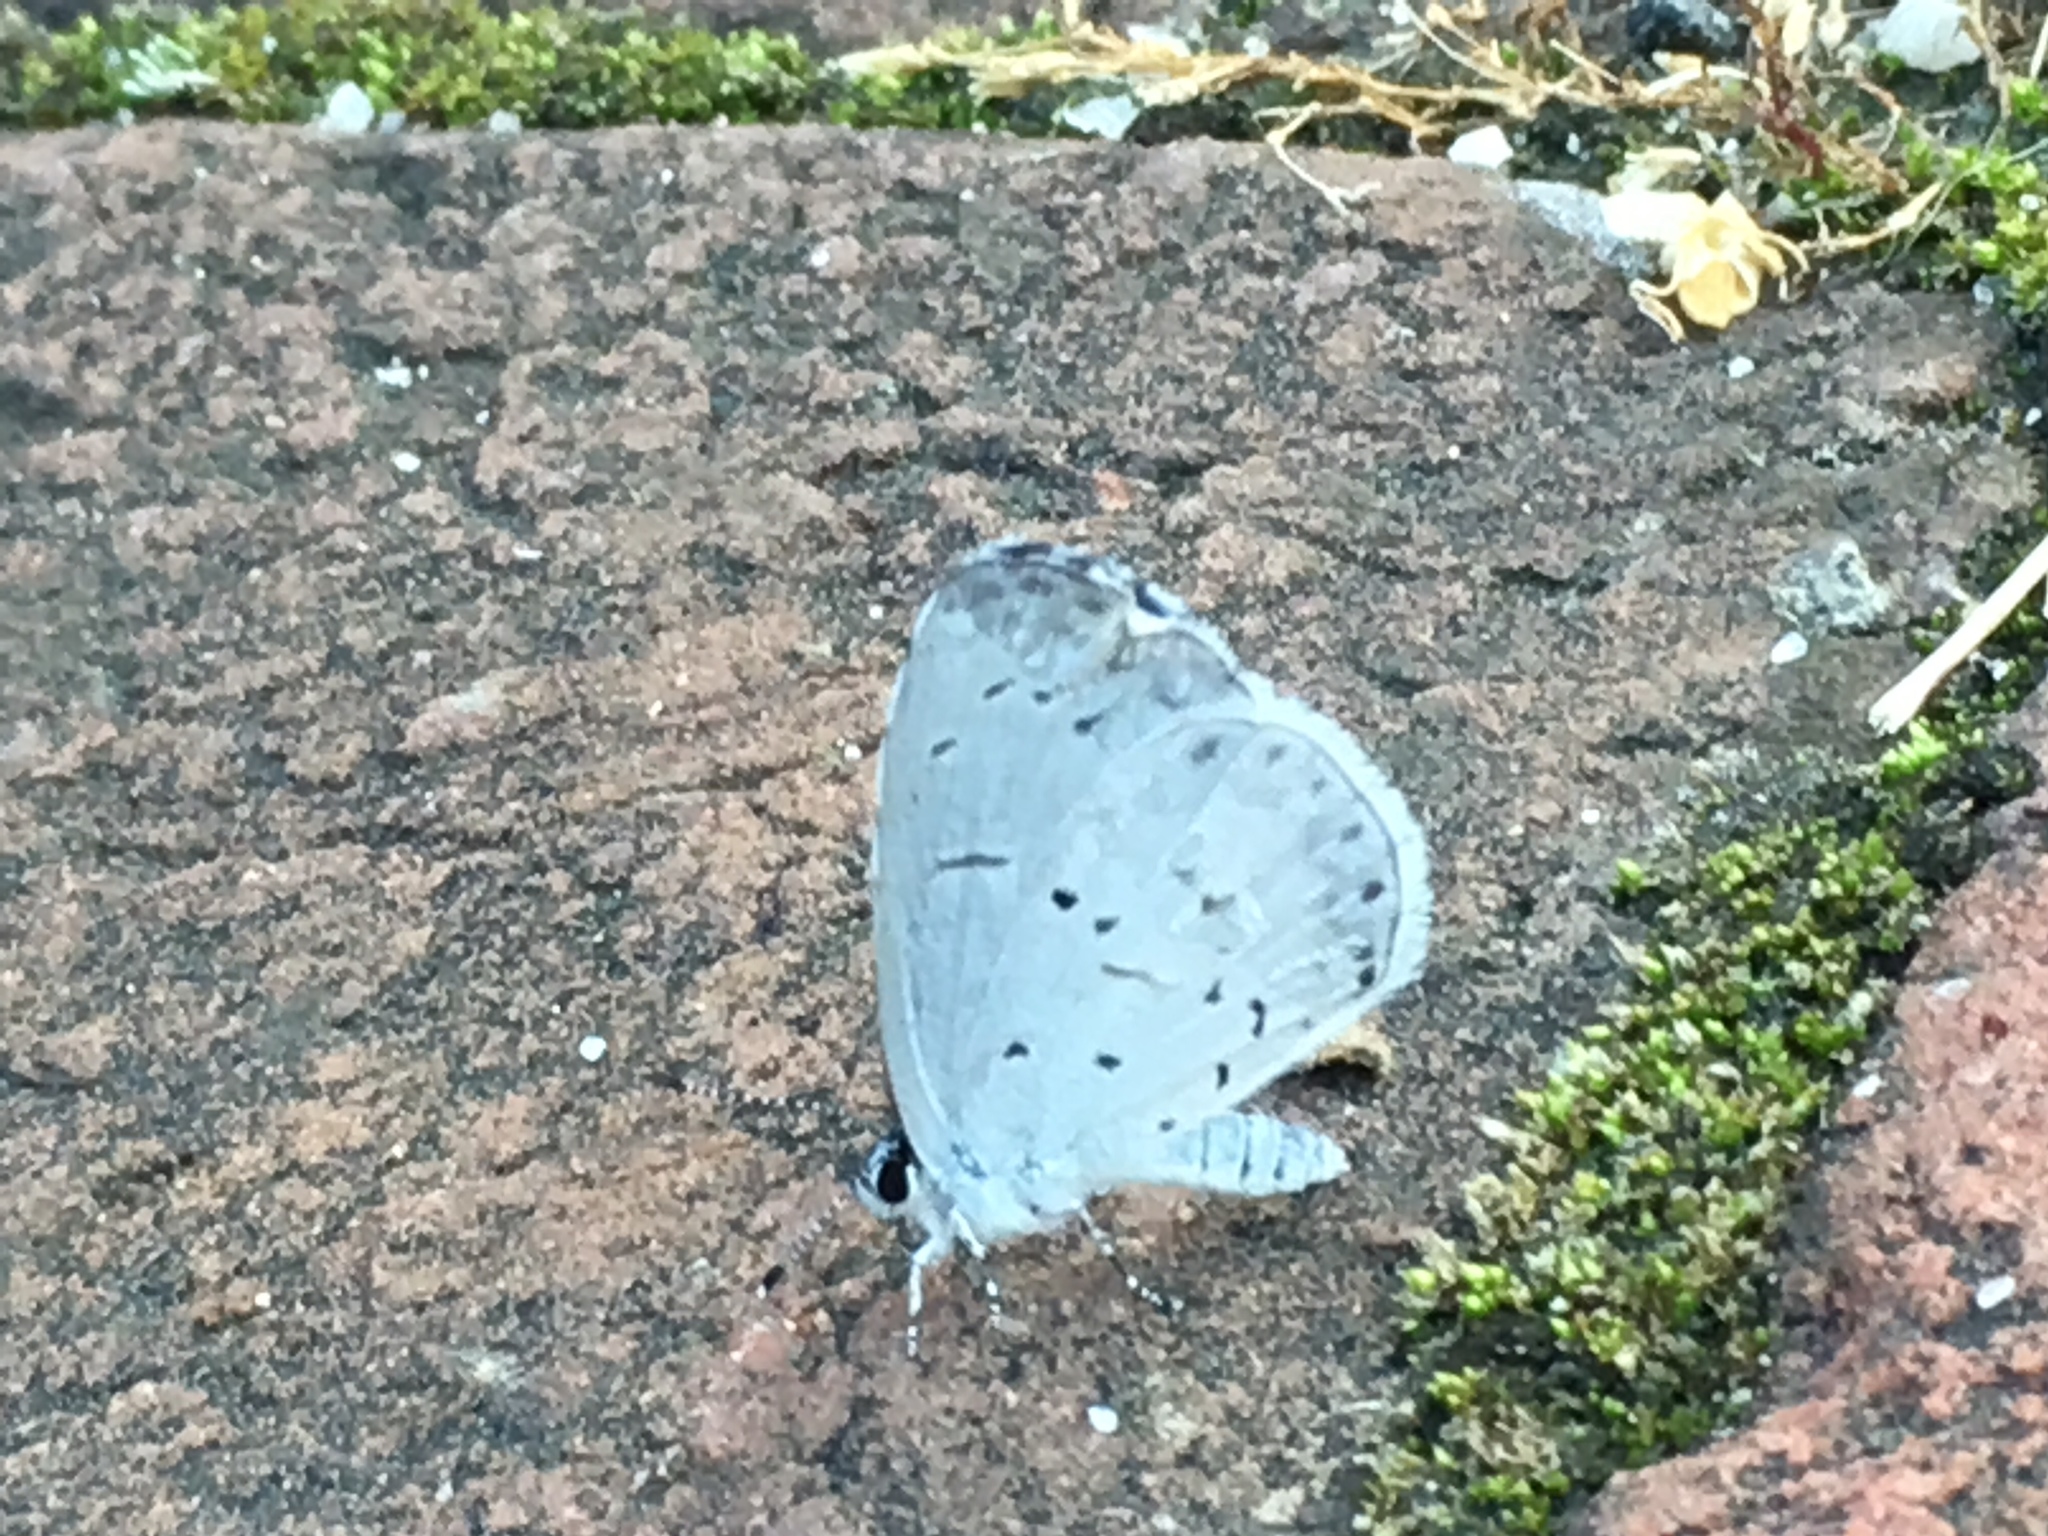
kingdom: Animalia
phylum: Arthropoda
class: Insecta
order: Lepidoptera
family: Lycaenidae
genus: Cyaniris
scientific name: Cyaniris neglecta
